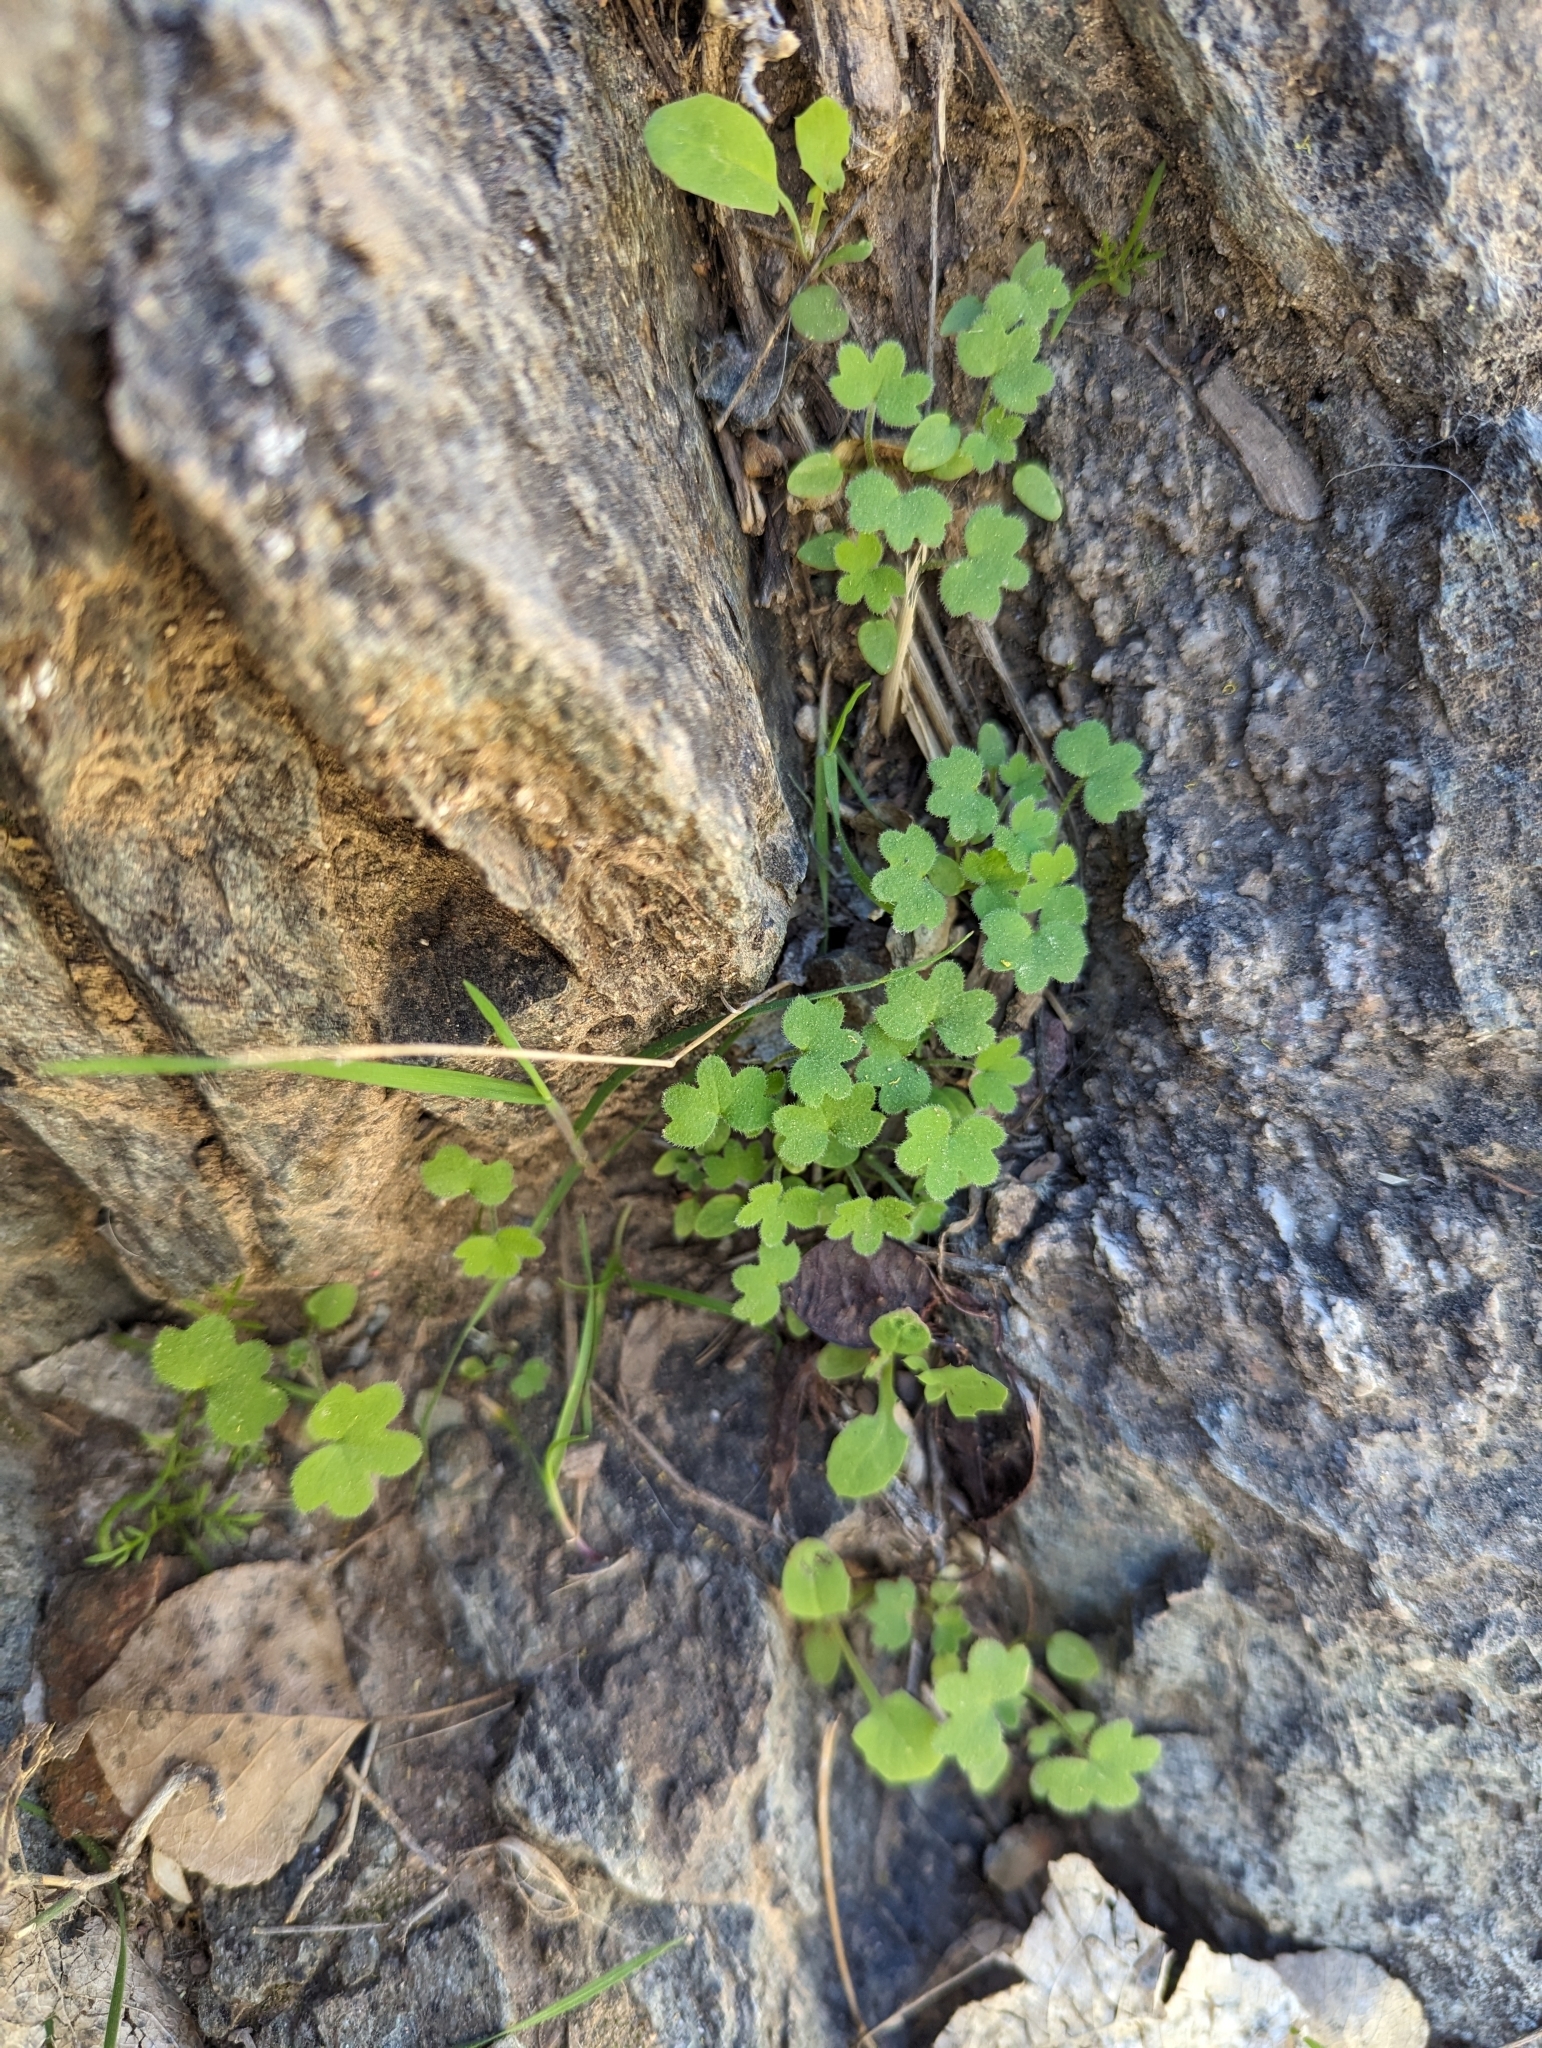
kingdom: Plantae
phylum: Tracheophyta
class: Magnoliopsida
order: Apiales
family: Apiaceae
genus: Bowlesia
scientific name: Bowlesia incana
